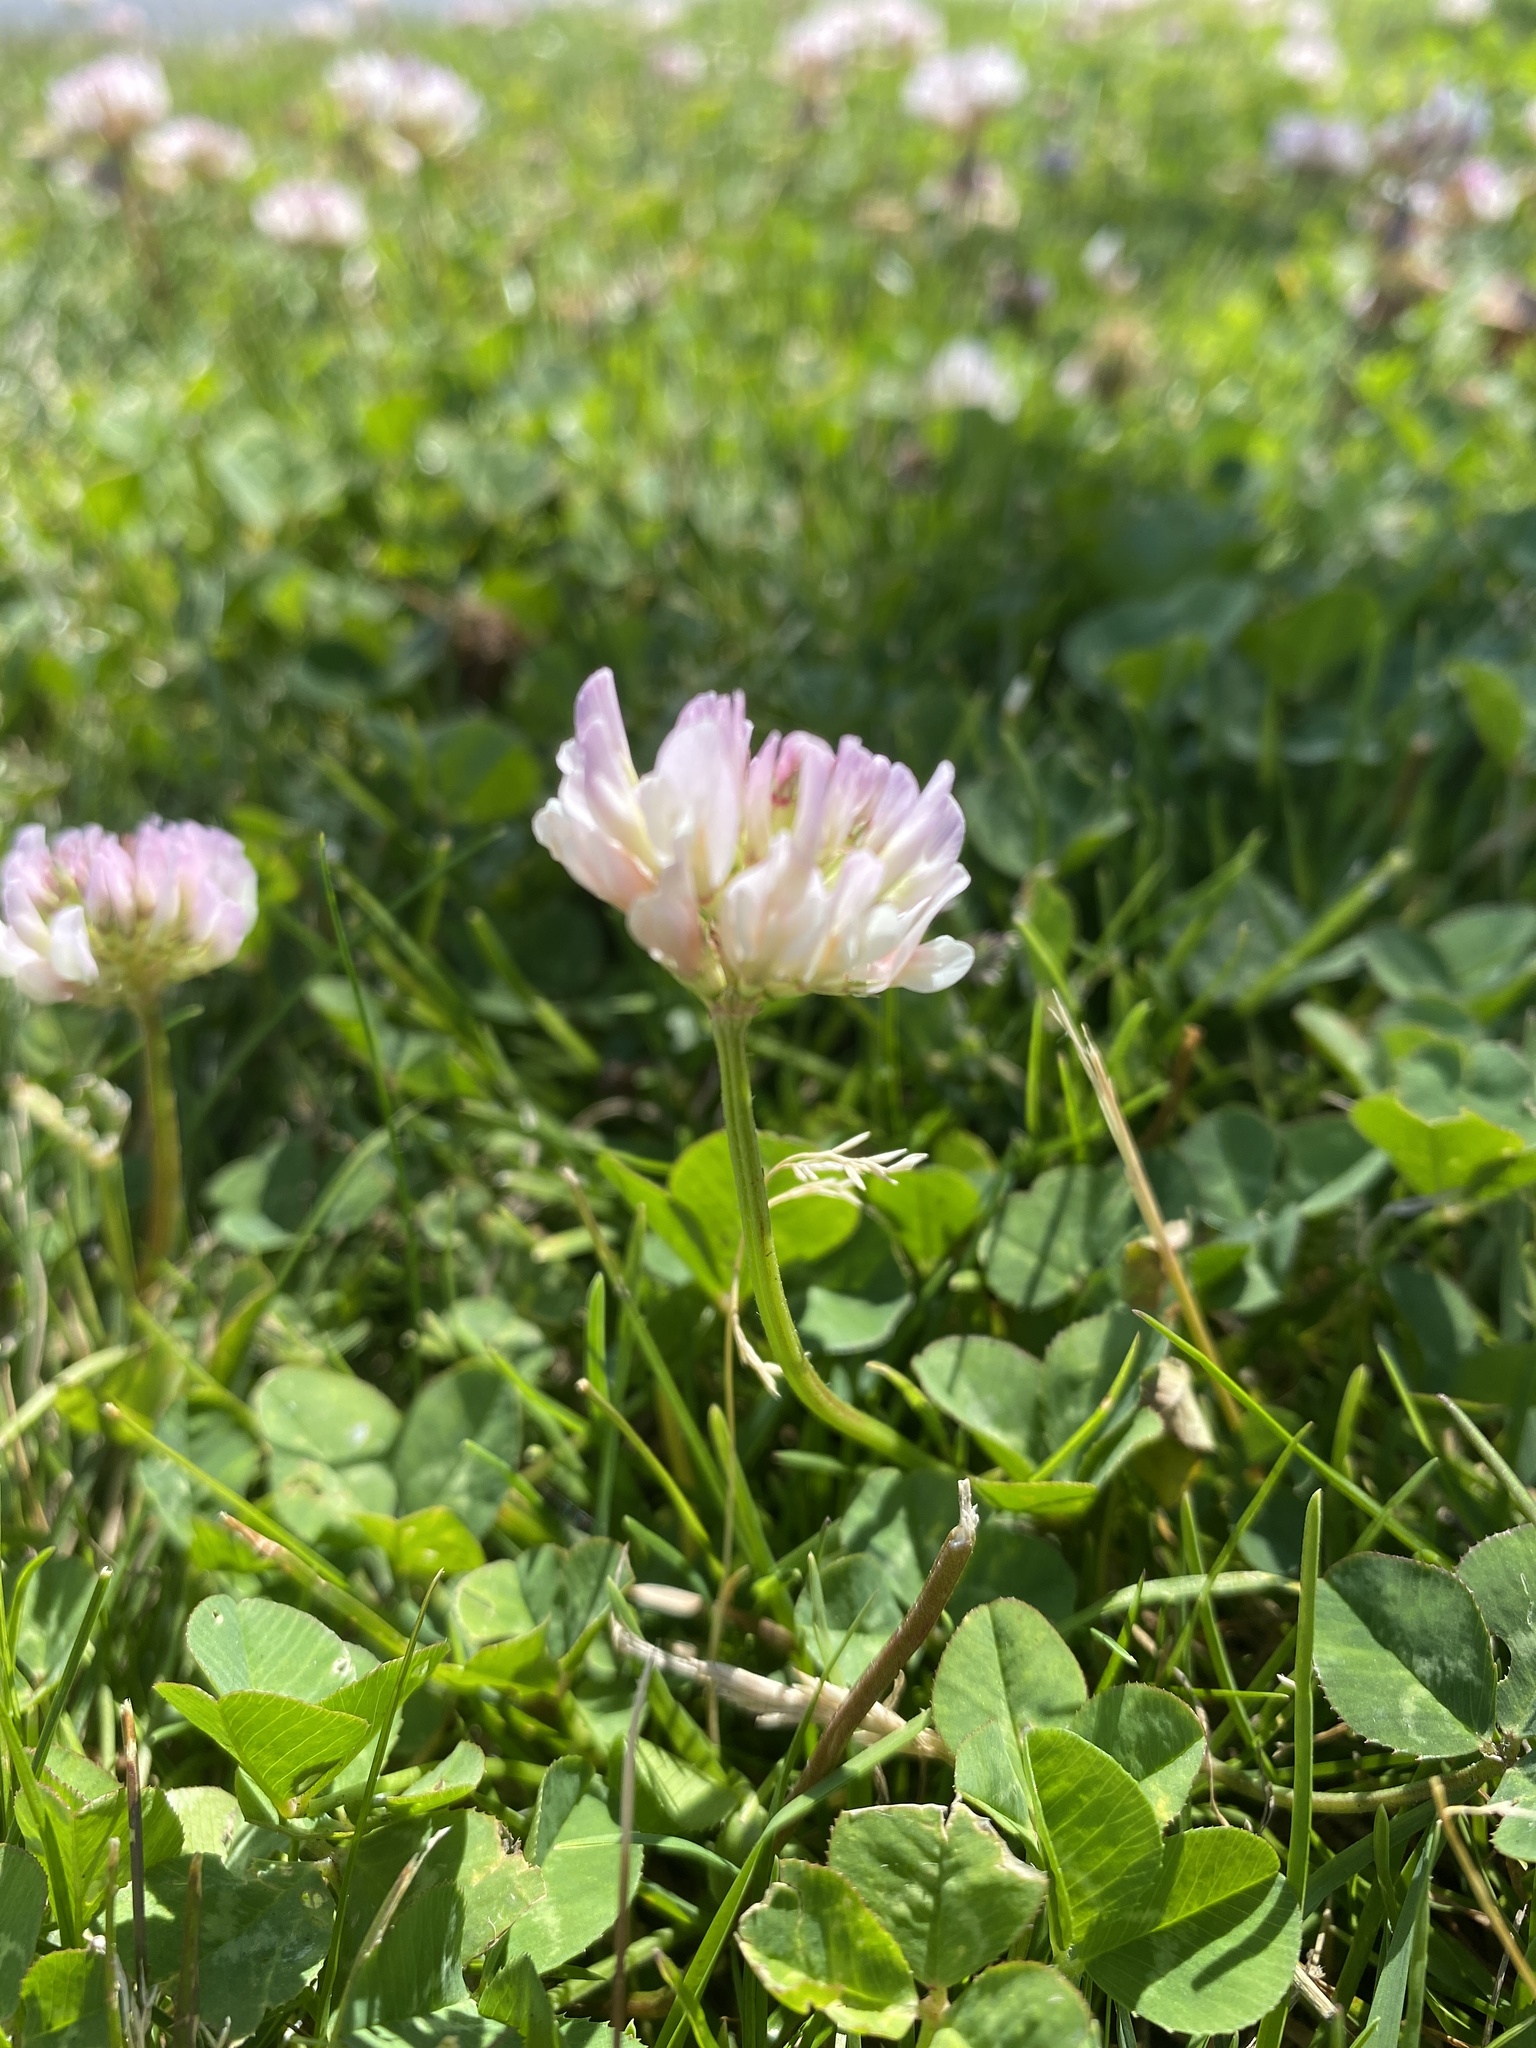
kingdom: Plantae
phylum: Tracheophyta
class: Magnoliopsida
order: Fabales
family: Fabaceae
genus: Trifolium
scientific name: Trifolium repens
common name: White clover
